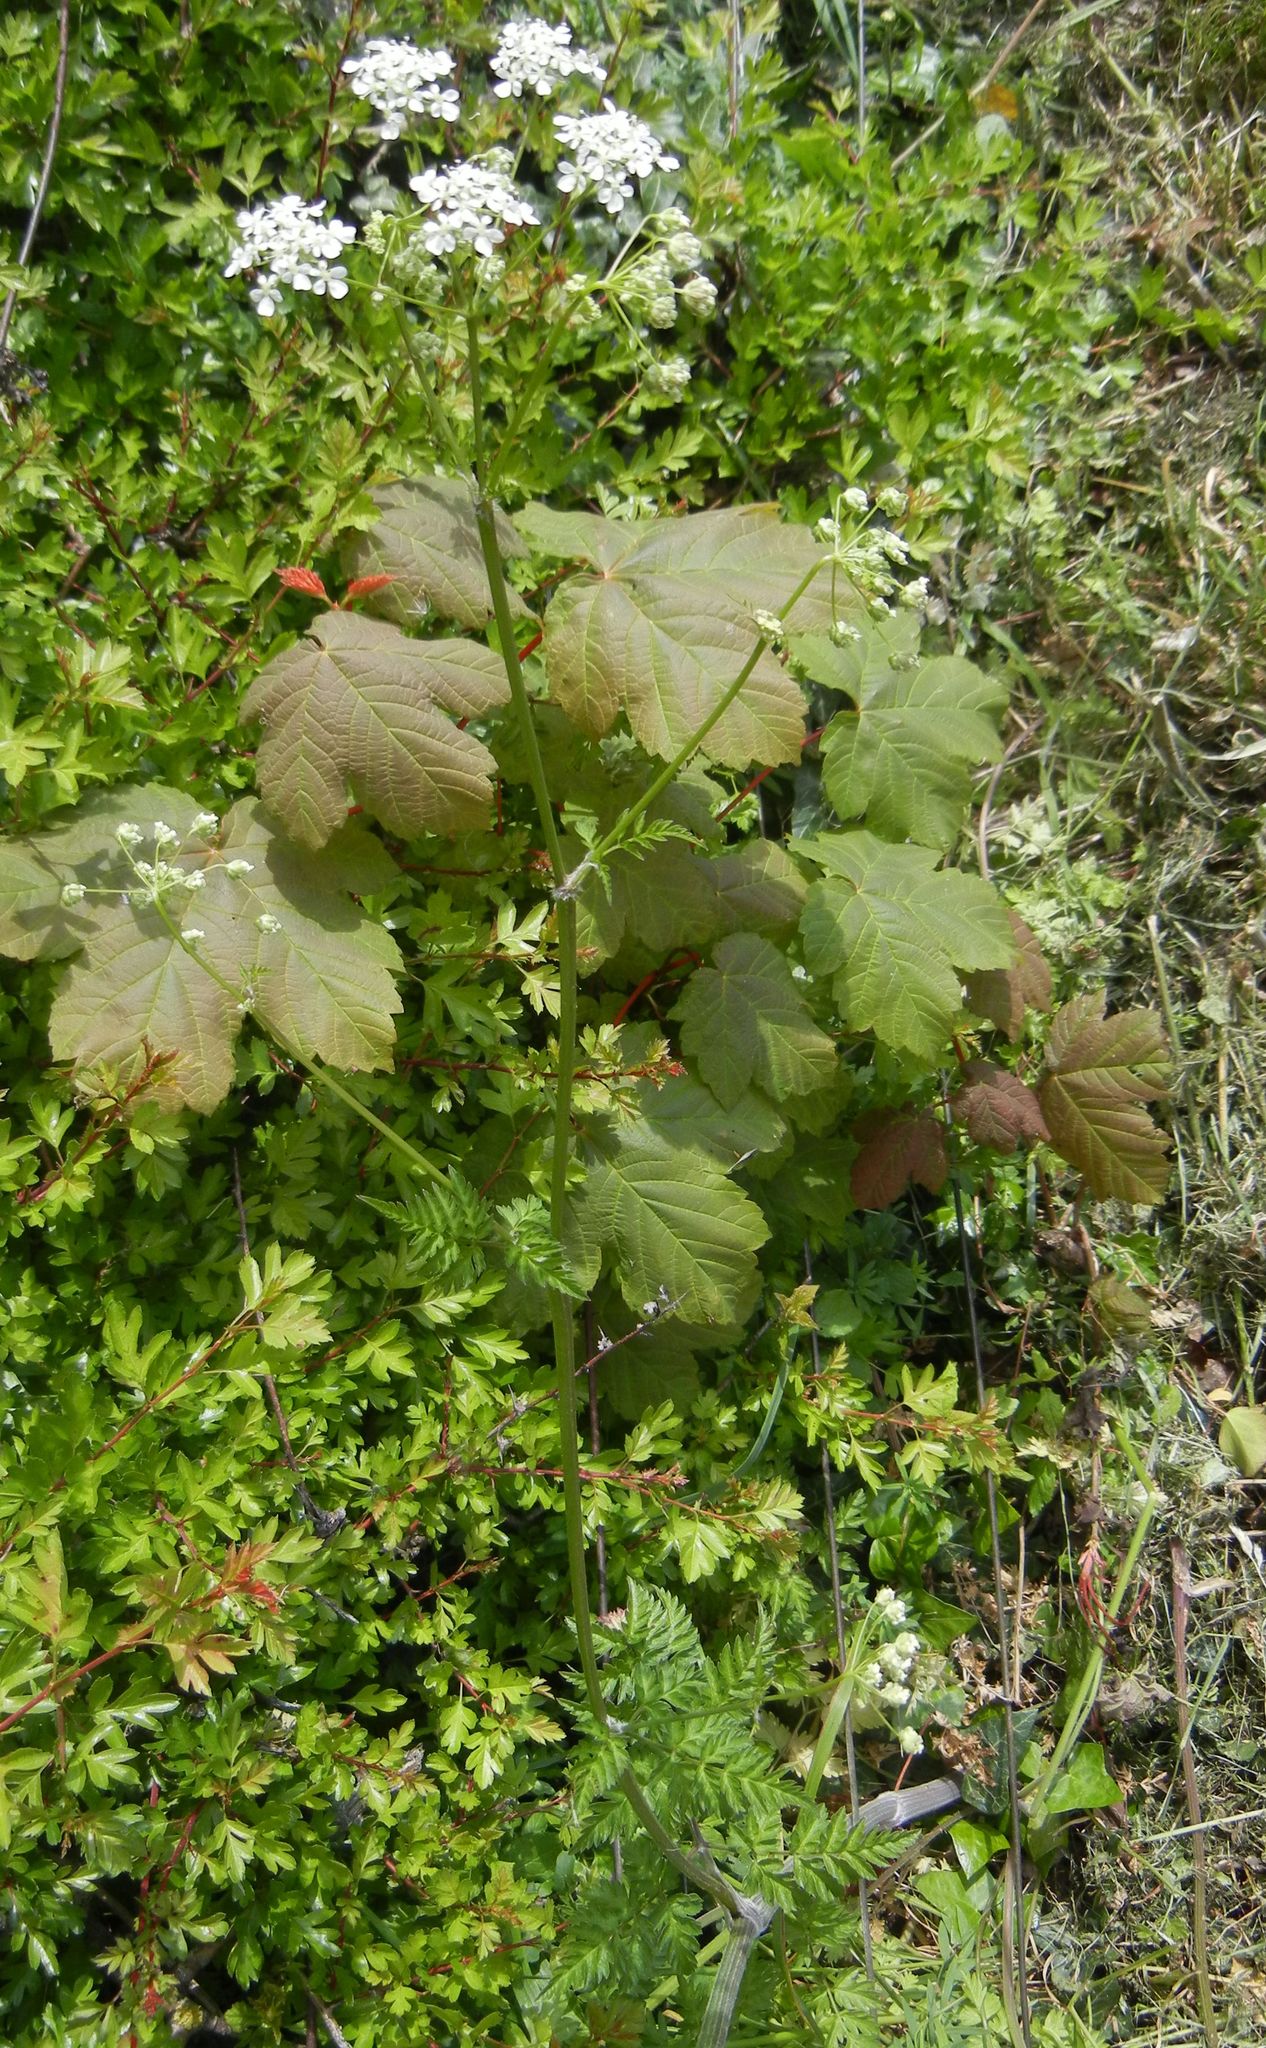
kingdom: Plantae
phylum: Tracheophyta
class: Magnoliopsida
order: Apiales
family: Apiaceae
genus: Anthriscus
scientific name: Anthriscus sylvestris
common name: Cow parsley
